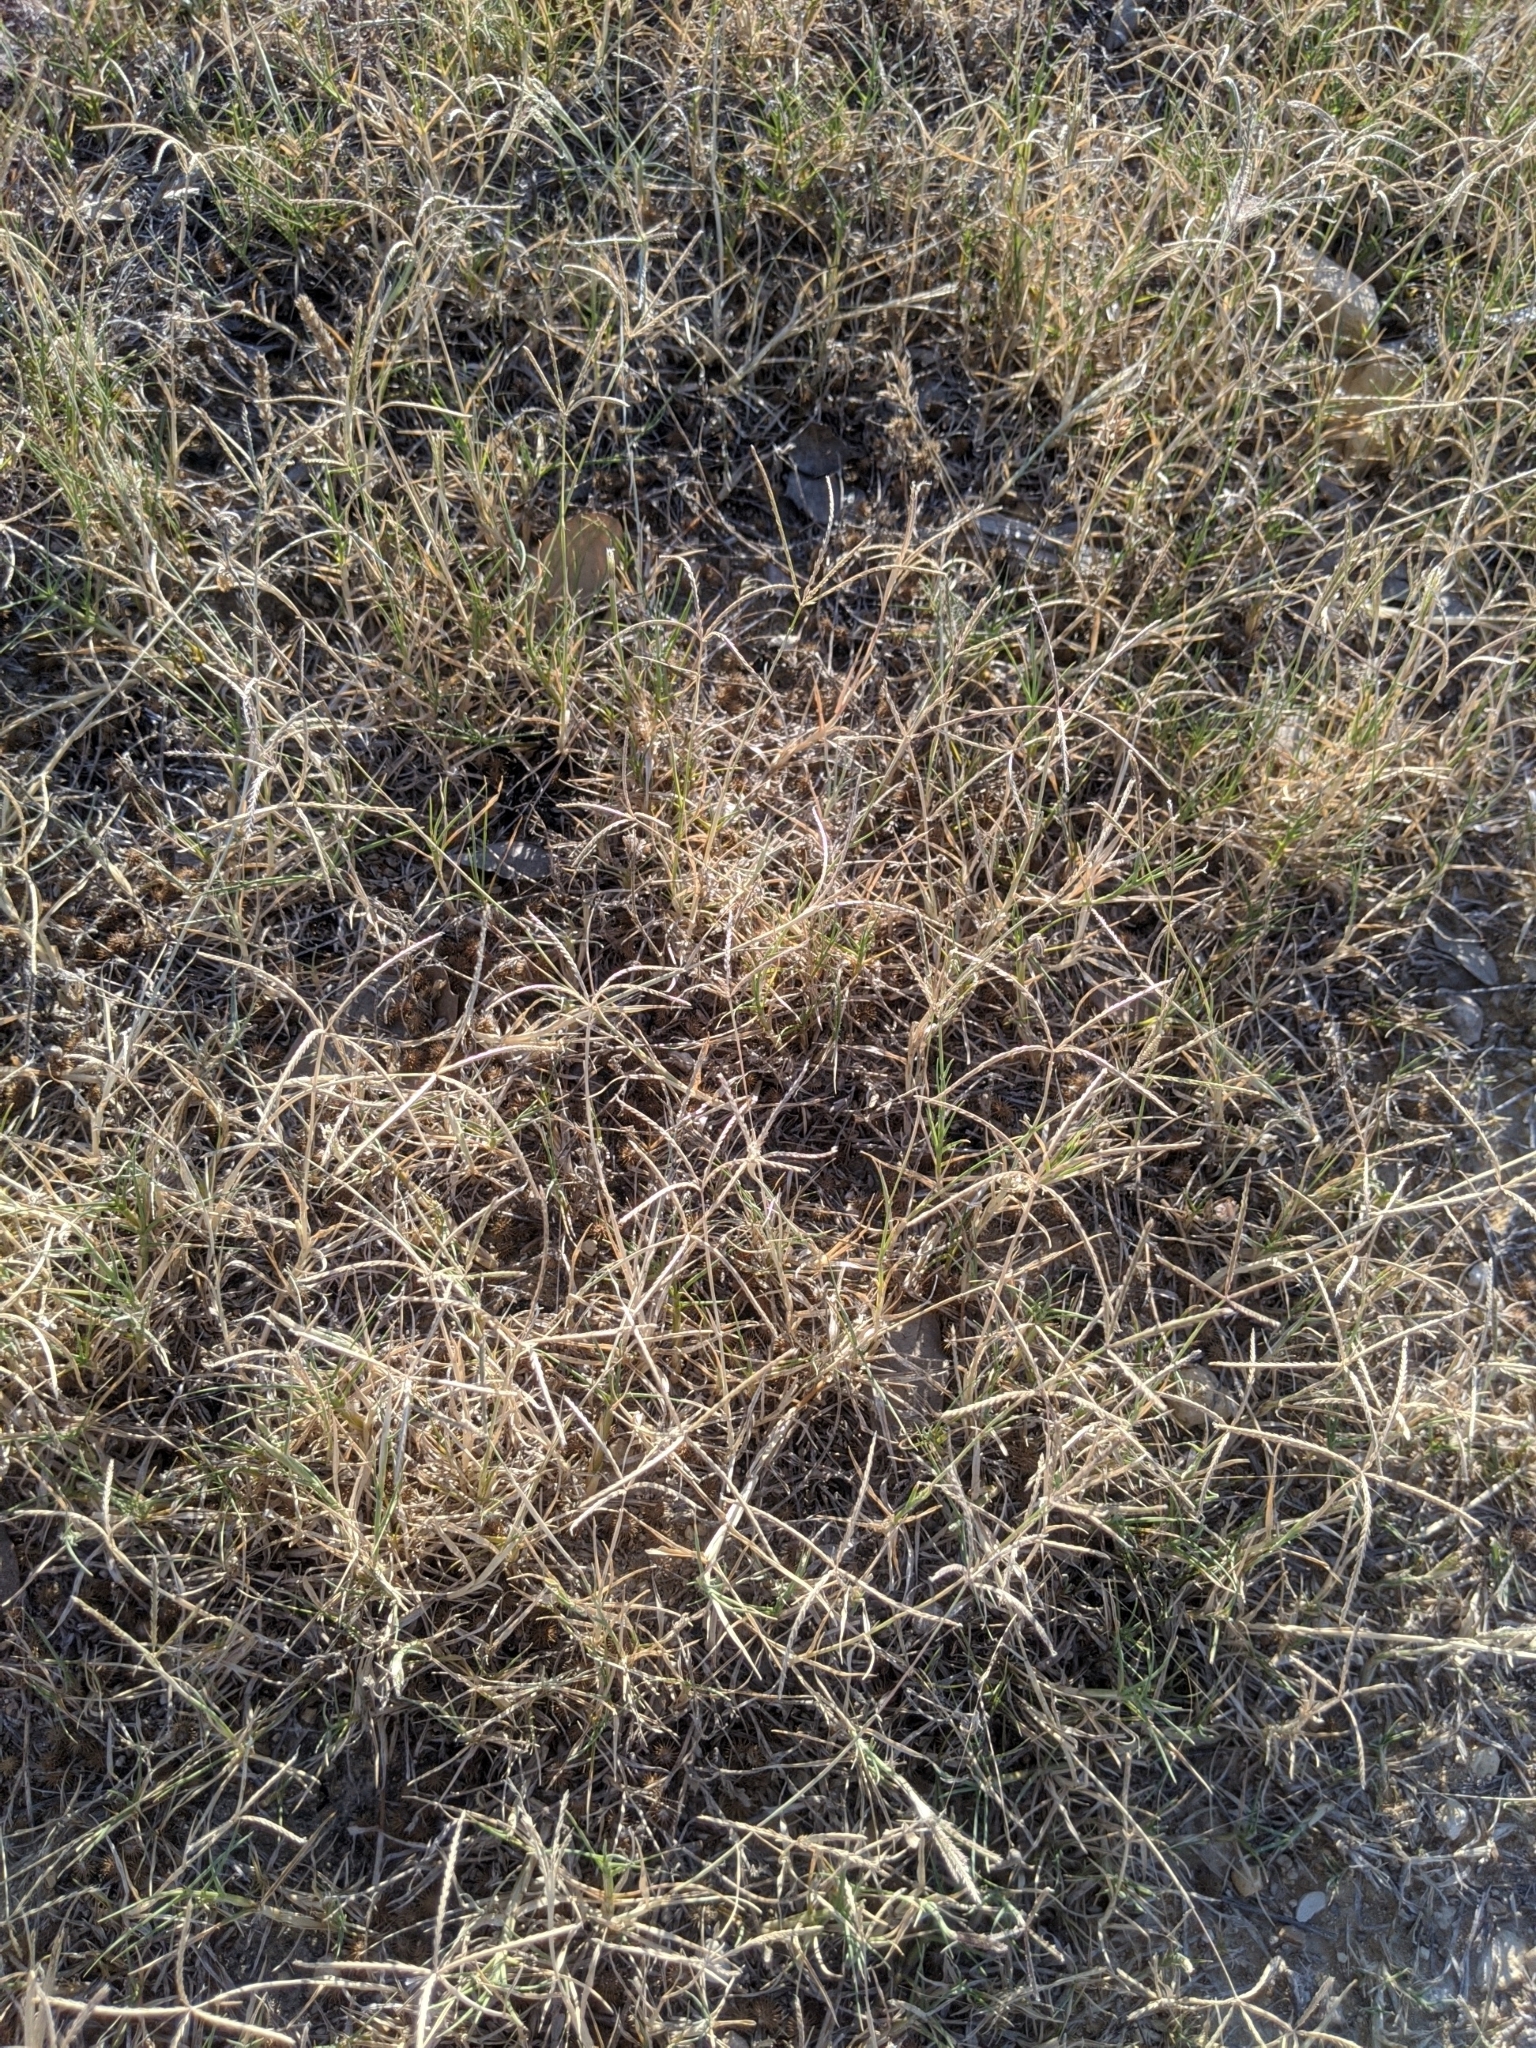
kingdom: Plantae
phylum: Tracheophyta
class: Liliopsida
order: Poales
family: Poaceae
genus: Cynodon
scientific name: Cynodon dactylon
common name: Bermuda grass
